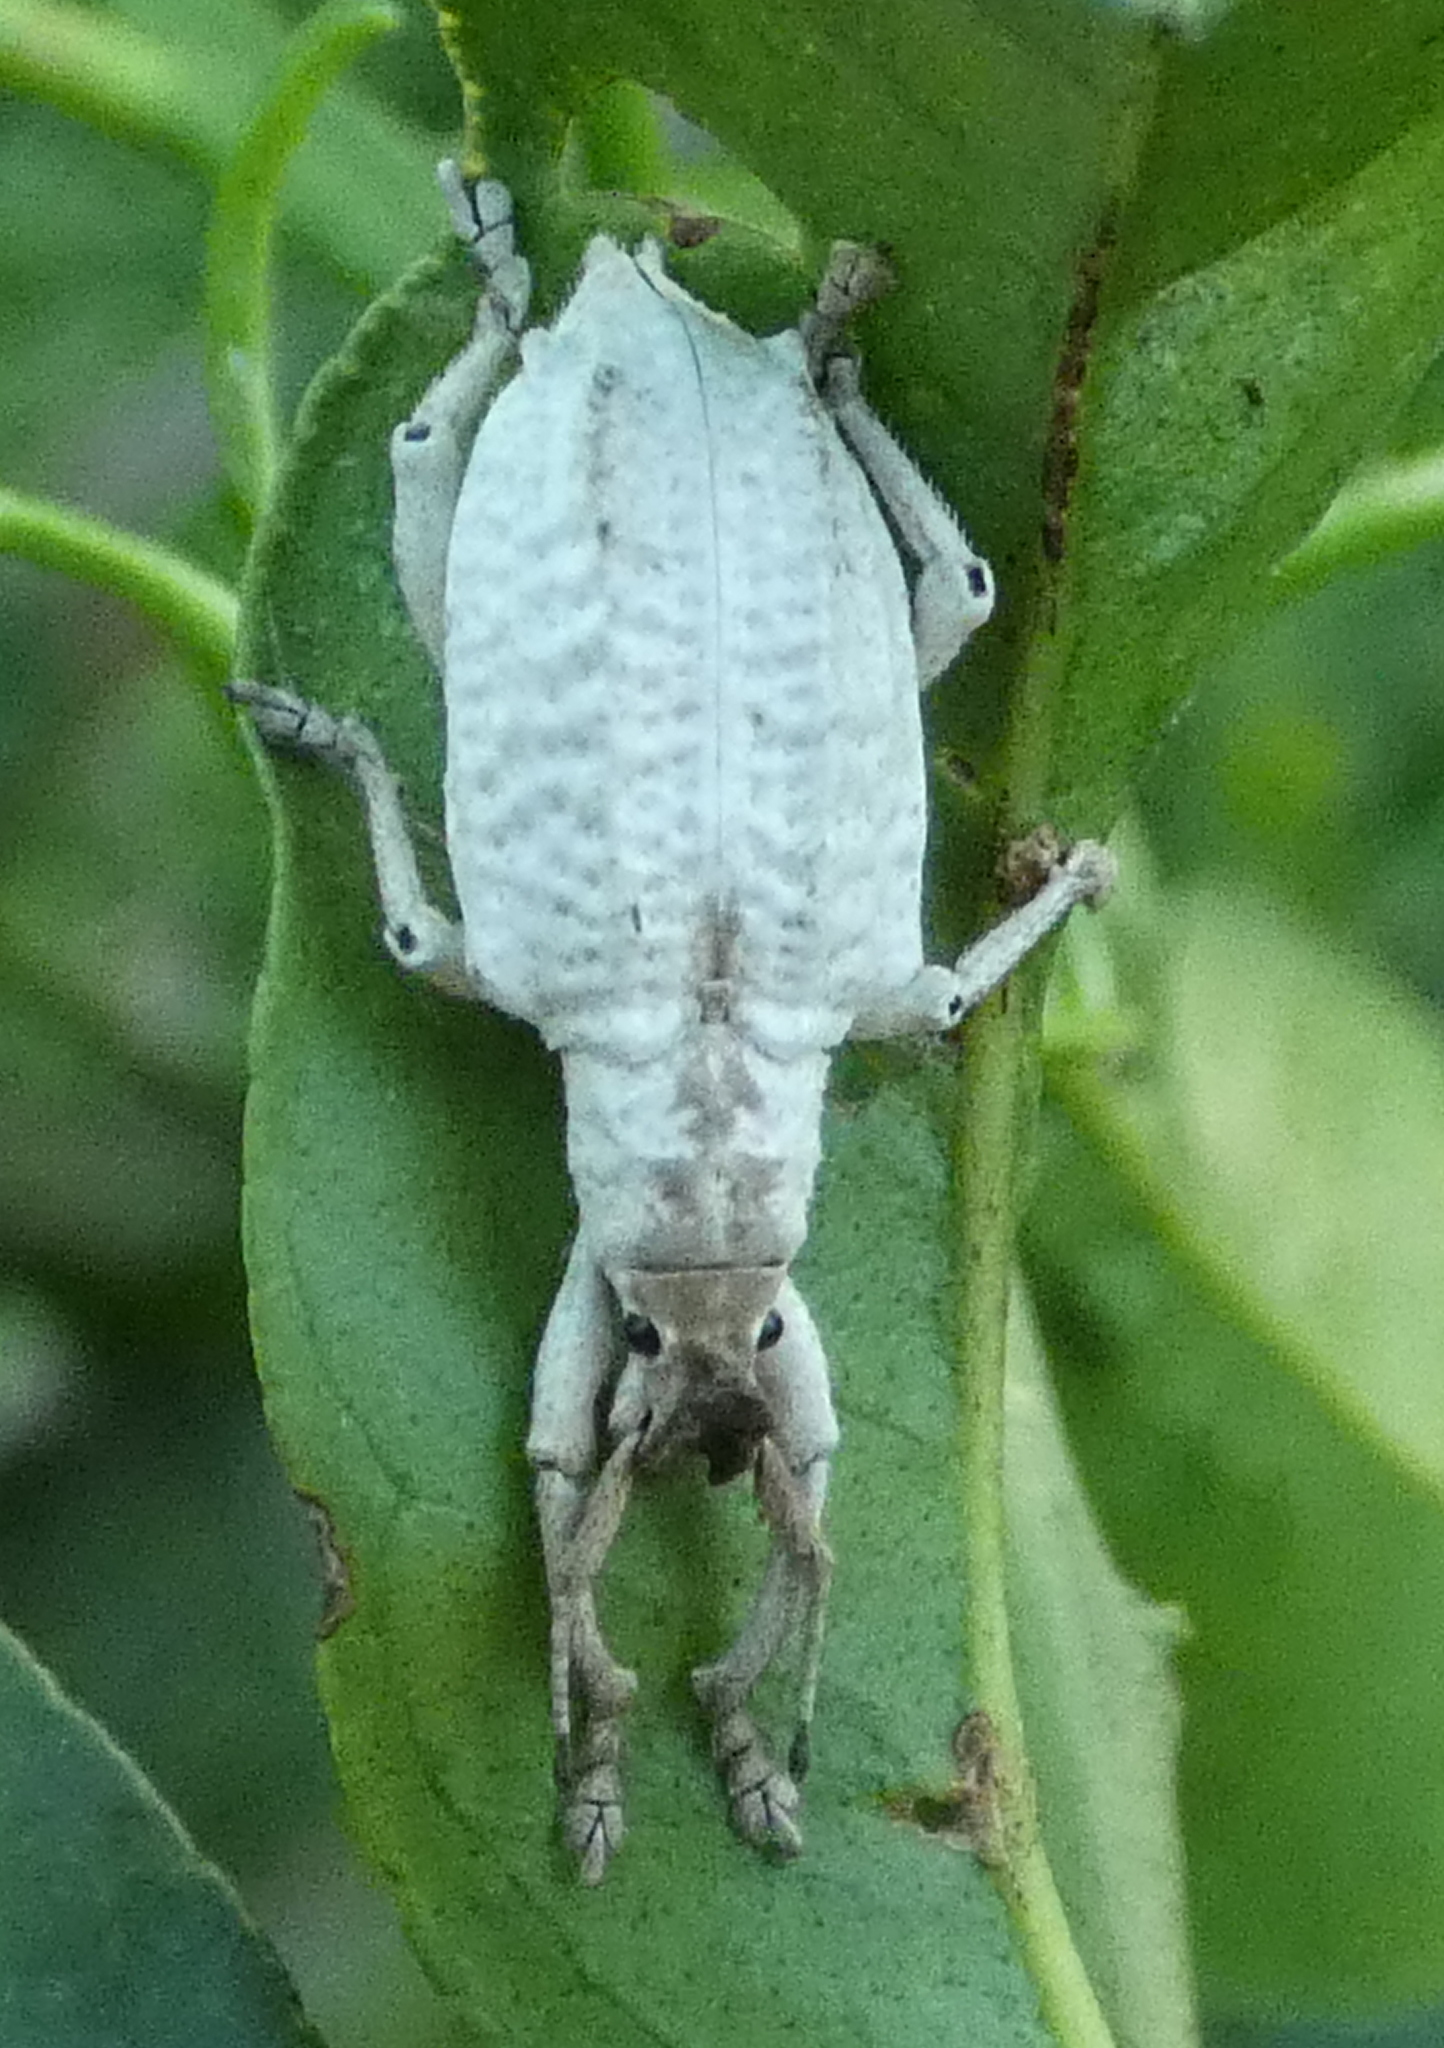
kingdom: Animalia
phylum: Arthropoda
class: Insecta
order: Coleoptera
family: Curculionidae
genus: Compsus
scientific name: Compsus niveus
